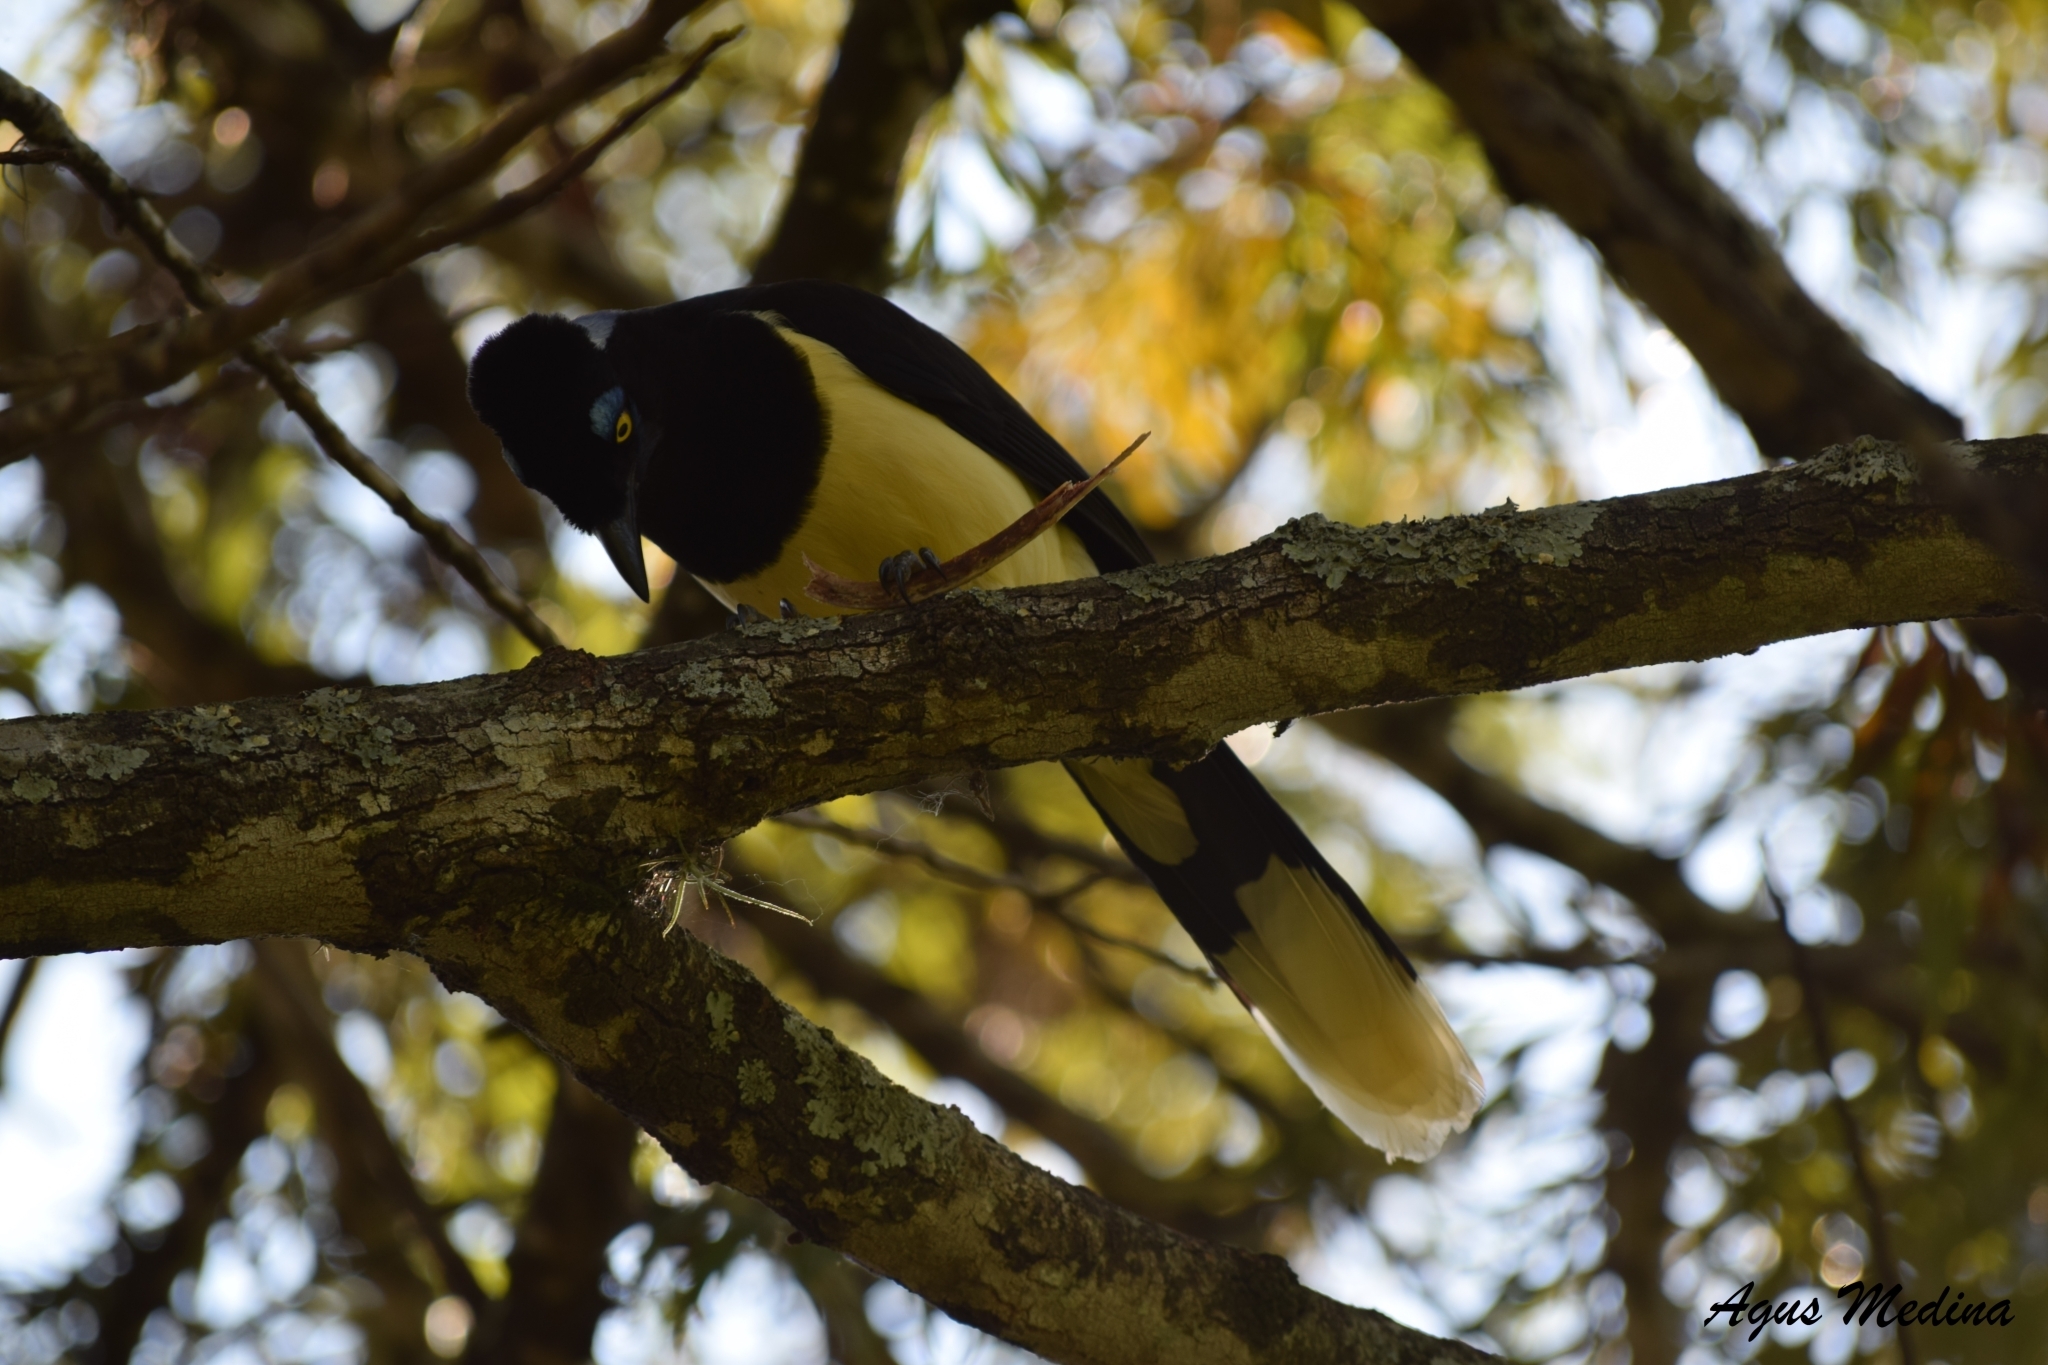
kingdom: Animalia
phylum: Chordata
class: Aves
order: Passeriformes
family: Corvidae
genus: Cyanocorax
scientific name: Cyanocorax chrysops
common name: Plush-crested jay
